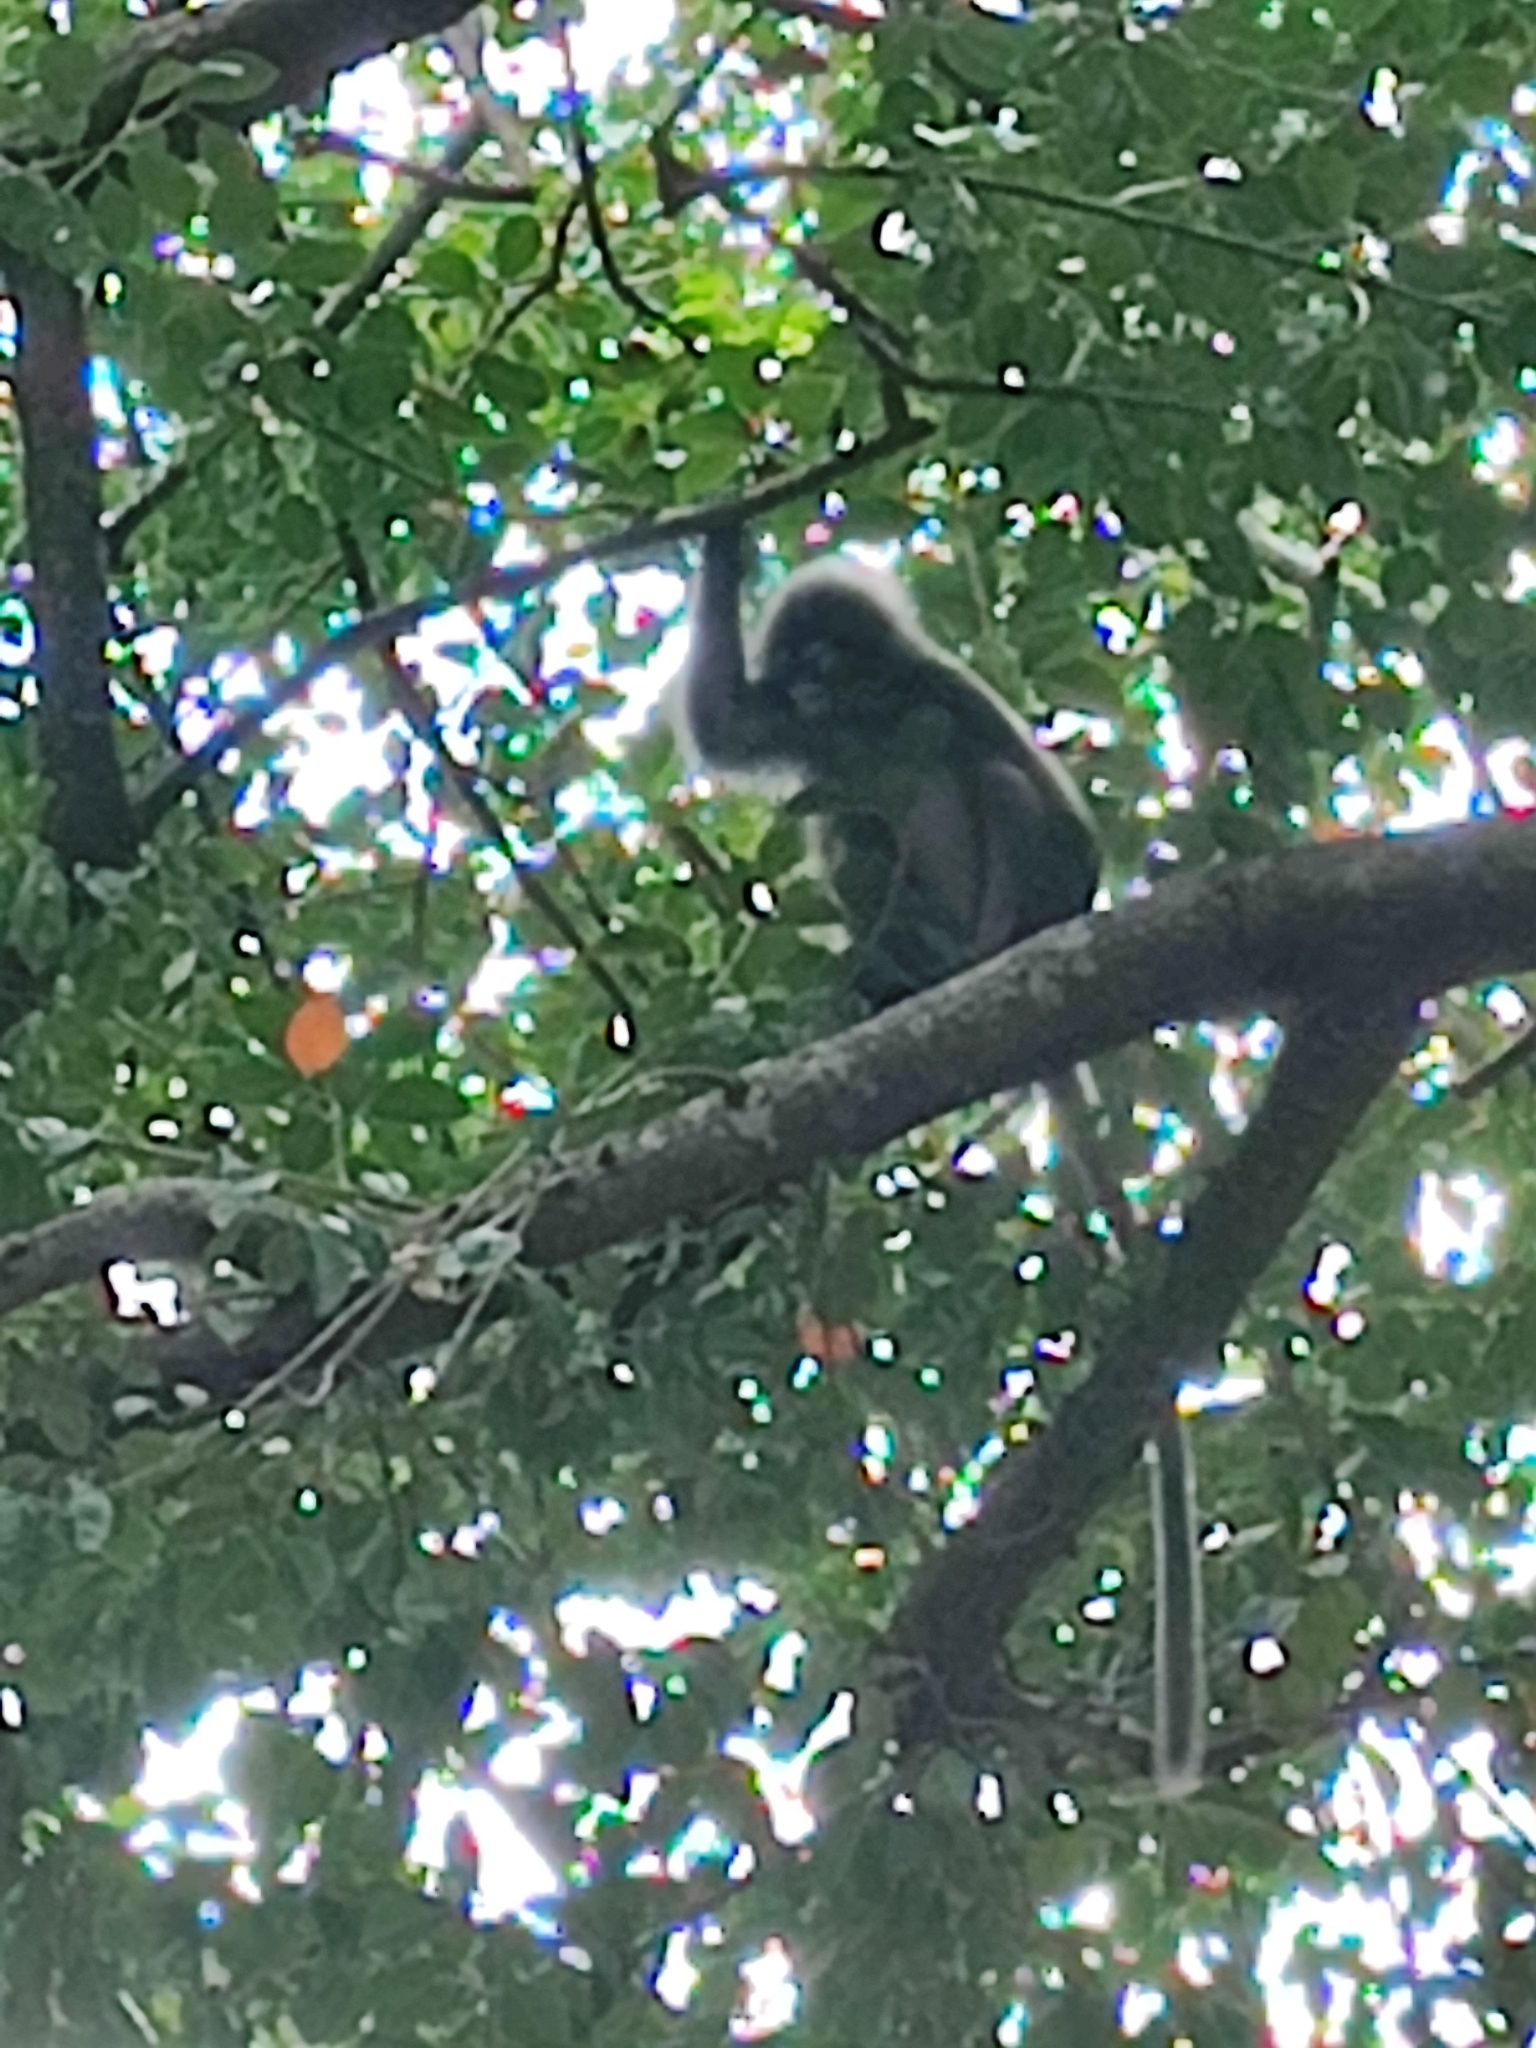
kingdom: Animalia
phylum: Chordata
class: Mammalia
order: Primates
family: Cercopithecidae
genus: Trachypithecus
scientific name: Trachypithecus obscurus
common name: Dusky leaf-monkey
